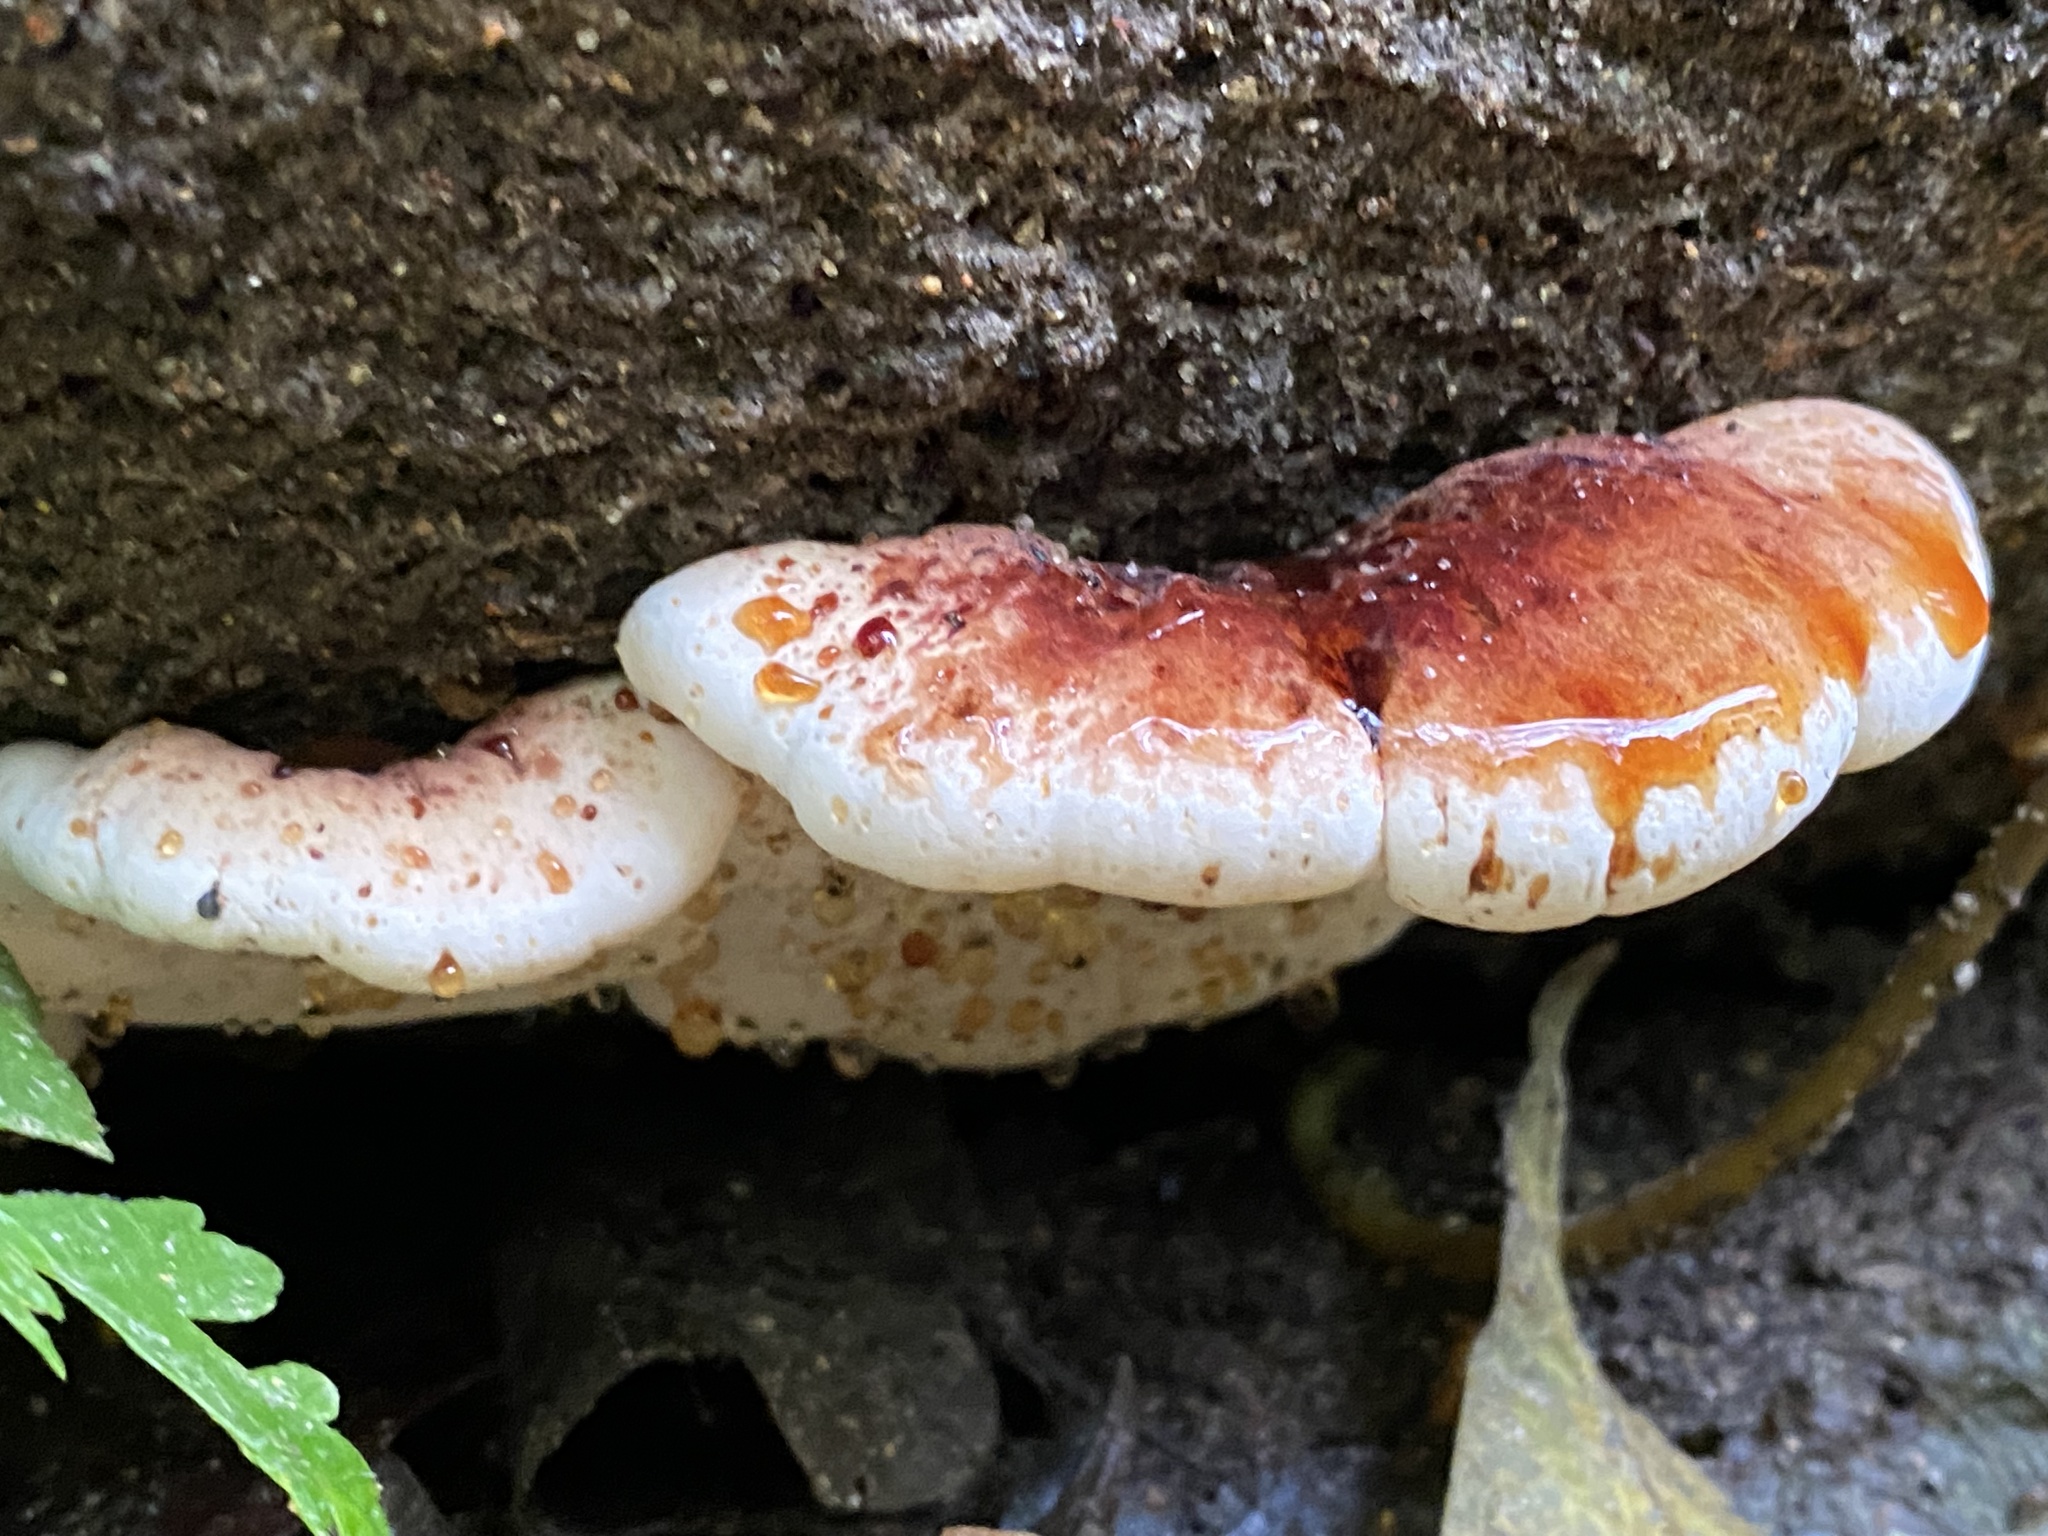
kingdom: Fungi
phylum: Basidiomycota
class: Agaricomycetes
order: Polyporales
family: Ischnodermataceae
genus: Ischnoderma
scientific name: Ischnoderma resinosum
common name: Resinous polypore
